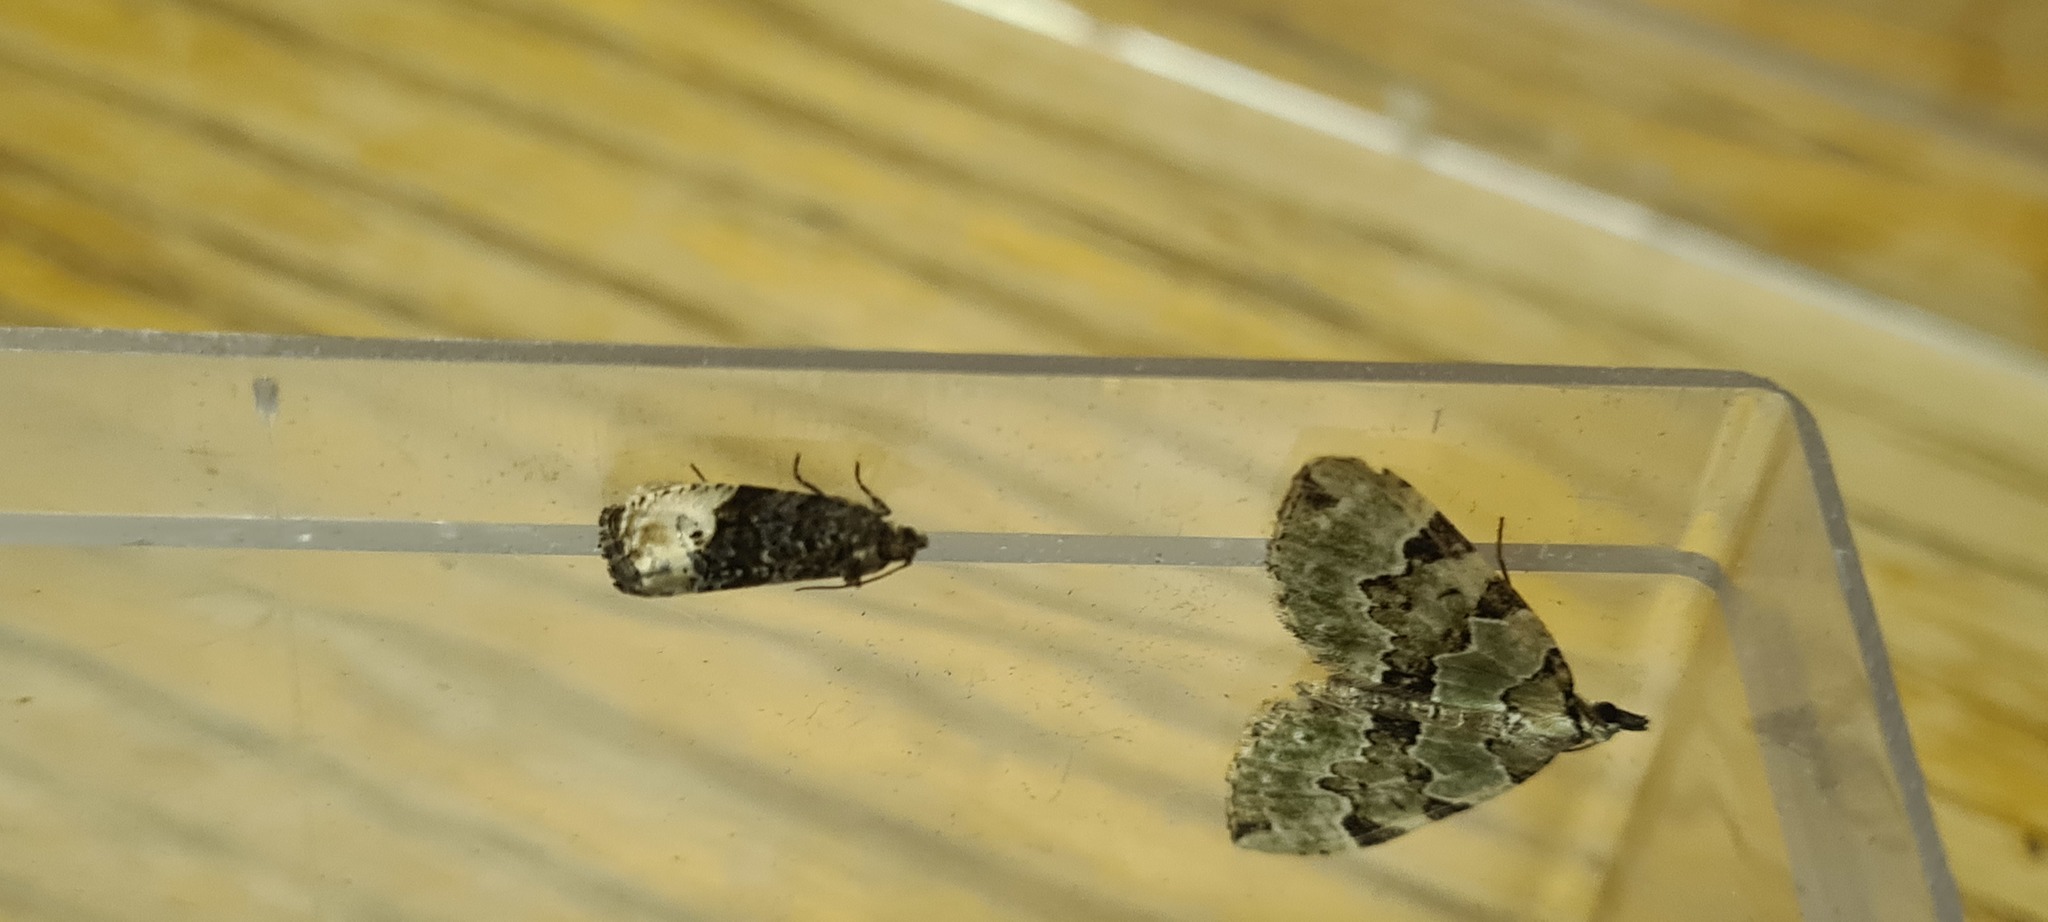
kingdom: Animalia
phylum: Arthropoda
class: Insecta
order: Lepidoptera
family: Tortricidae
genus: Hedya
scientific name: Hedya nubiferana
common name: Marbled orchard tortrix
